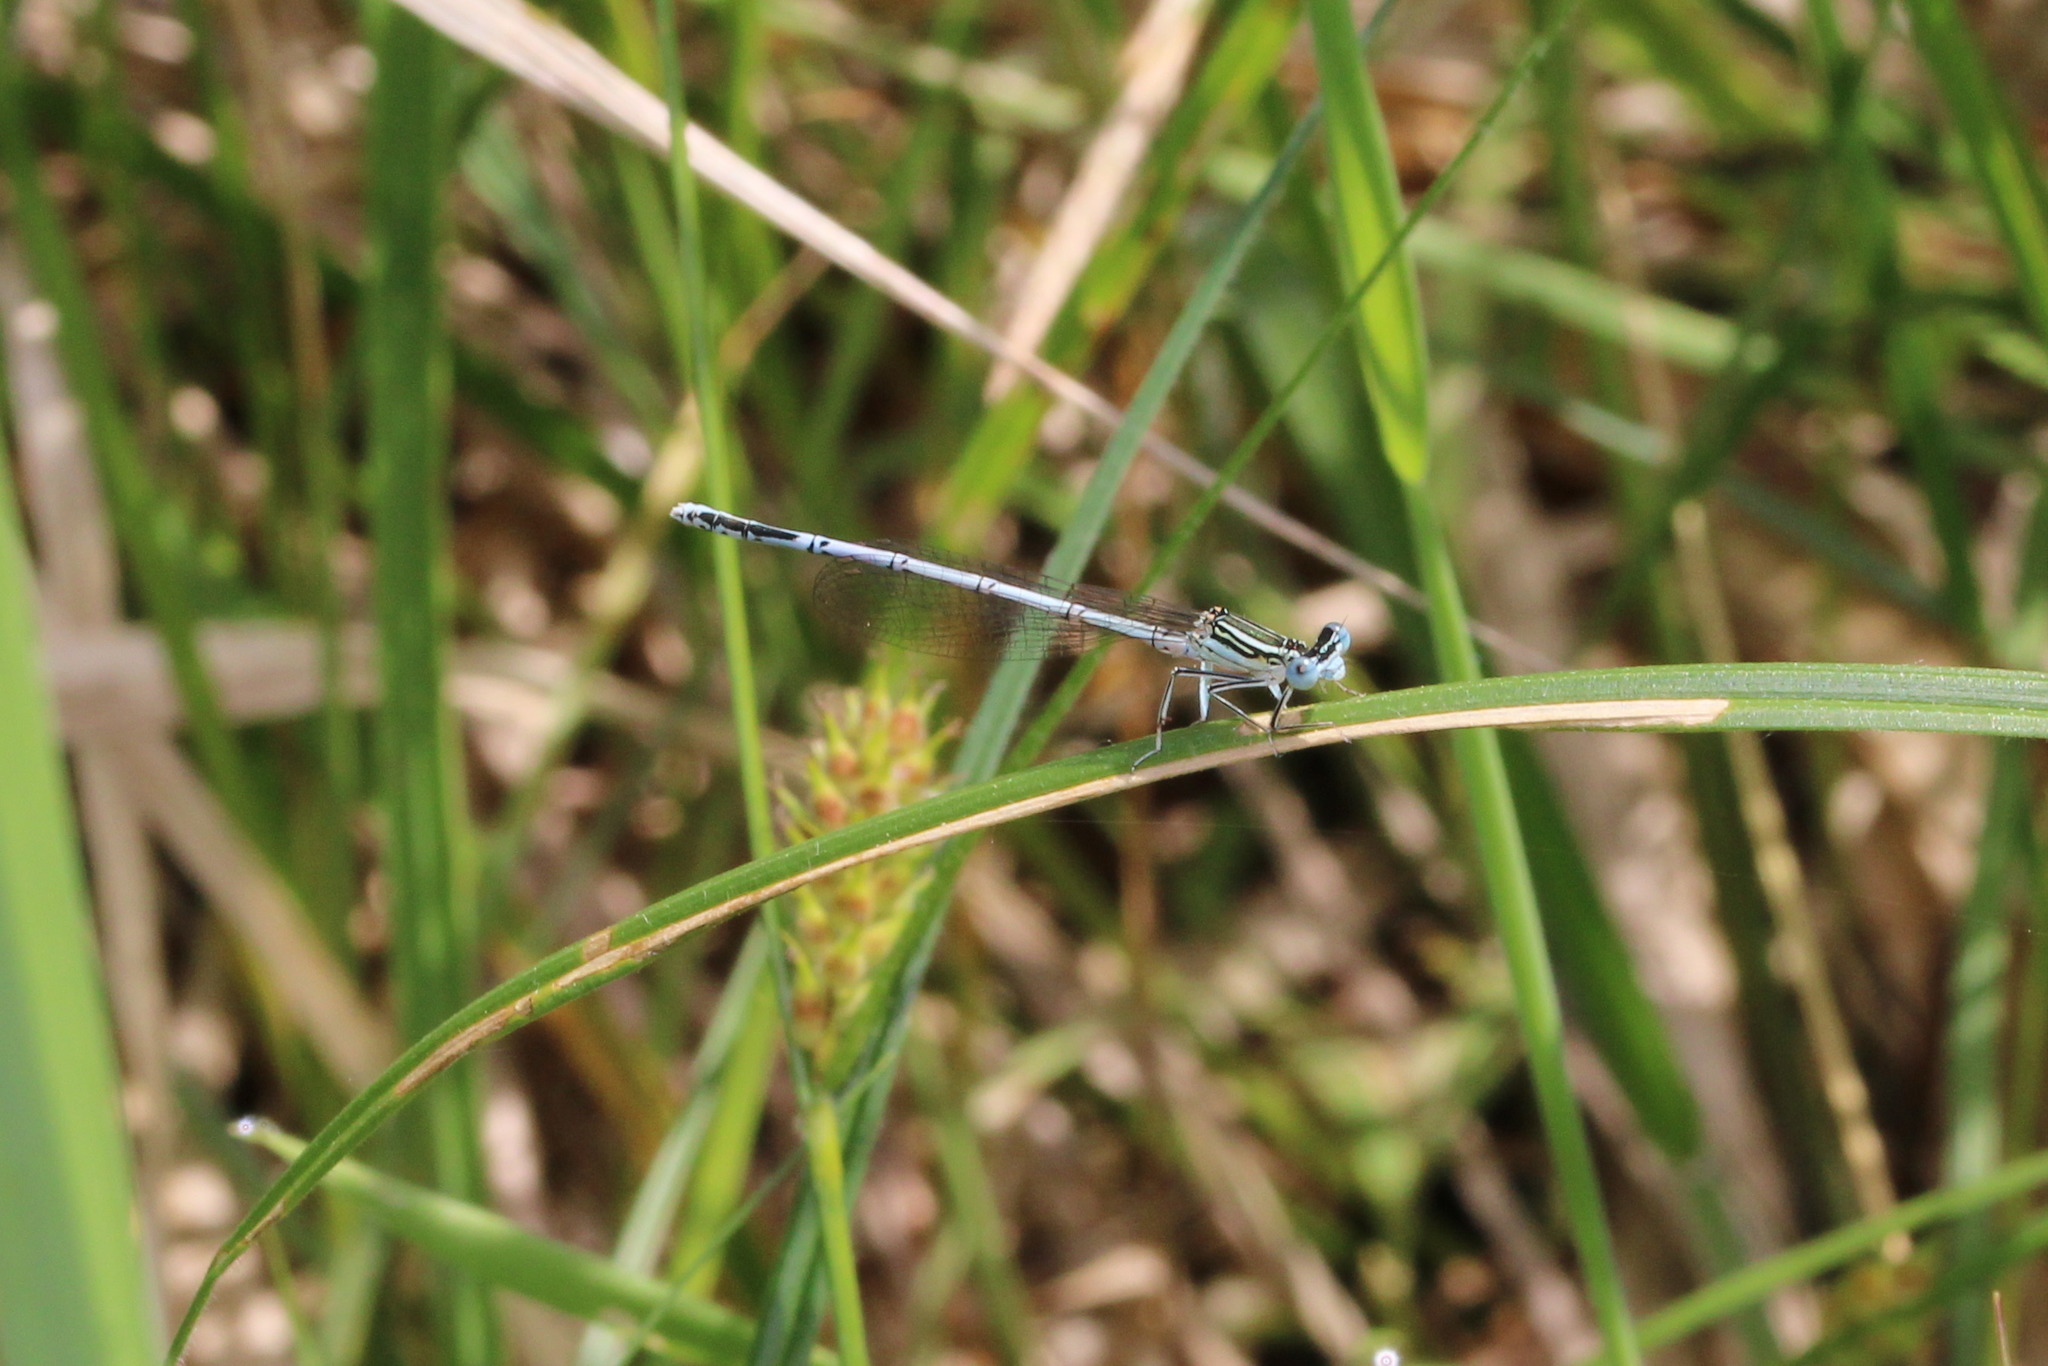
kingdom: Animalia
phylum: Arthropoda
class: Insecta
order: Odonata
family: Platycnemididae
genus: Platycnemis
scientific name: Platycnemis pennipes
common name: White-legged damselfly
